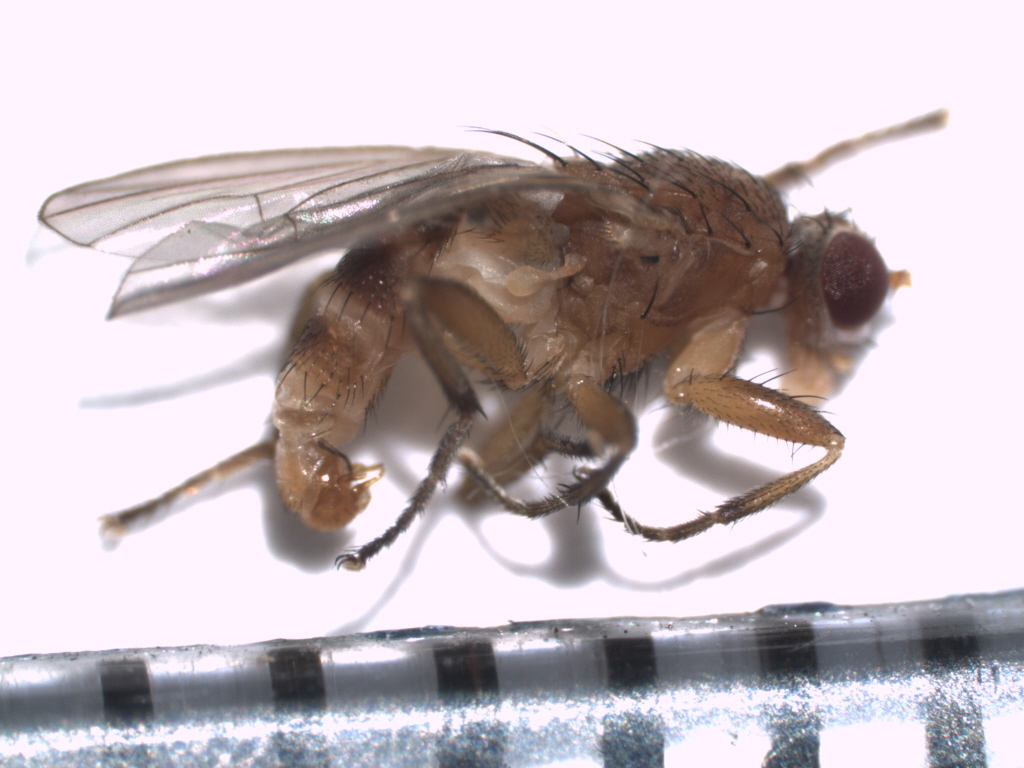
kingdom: Animalia
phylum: Arthropoda
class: Insecta
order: Diptera
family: Heleomyzidae
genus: Neoleria
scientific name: Neoleria inscripta
